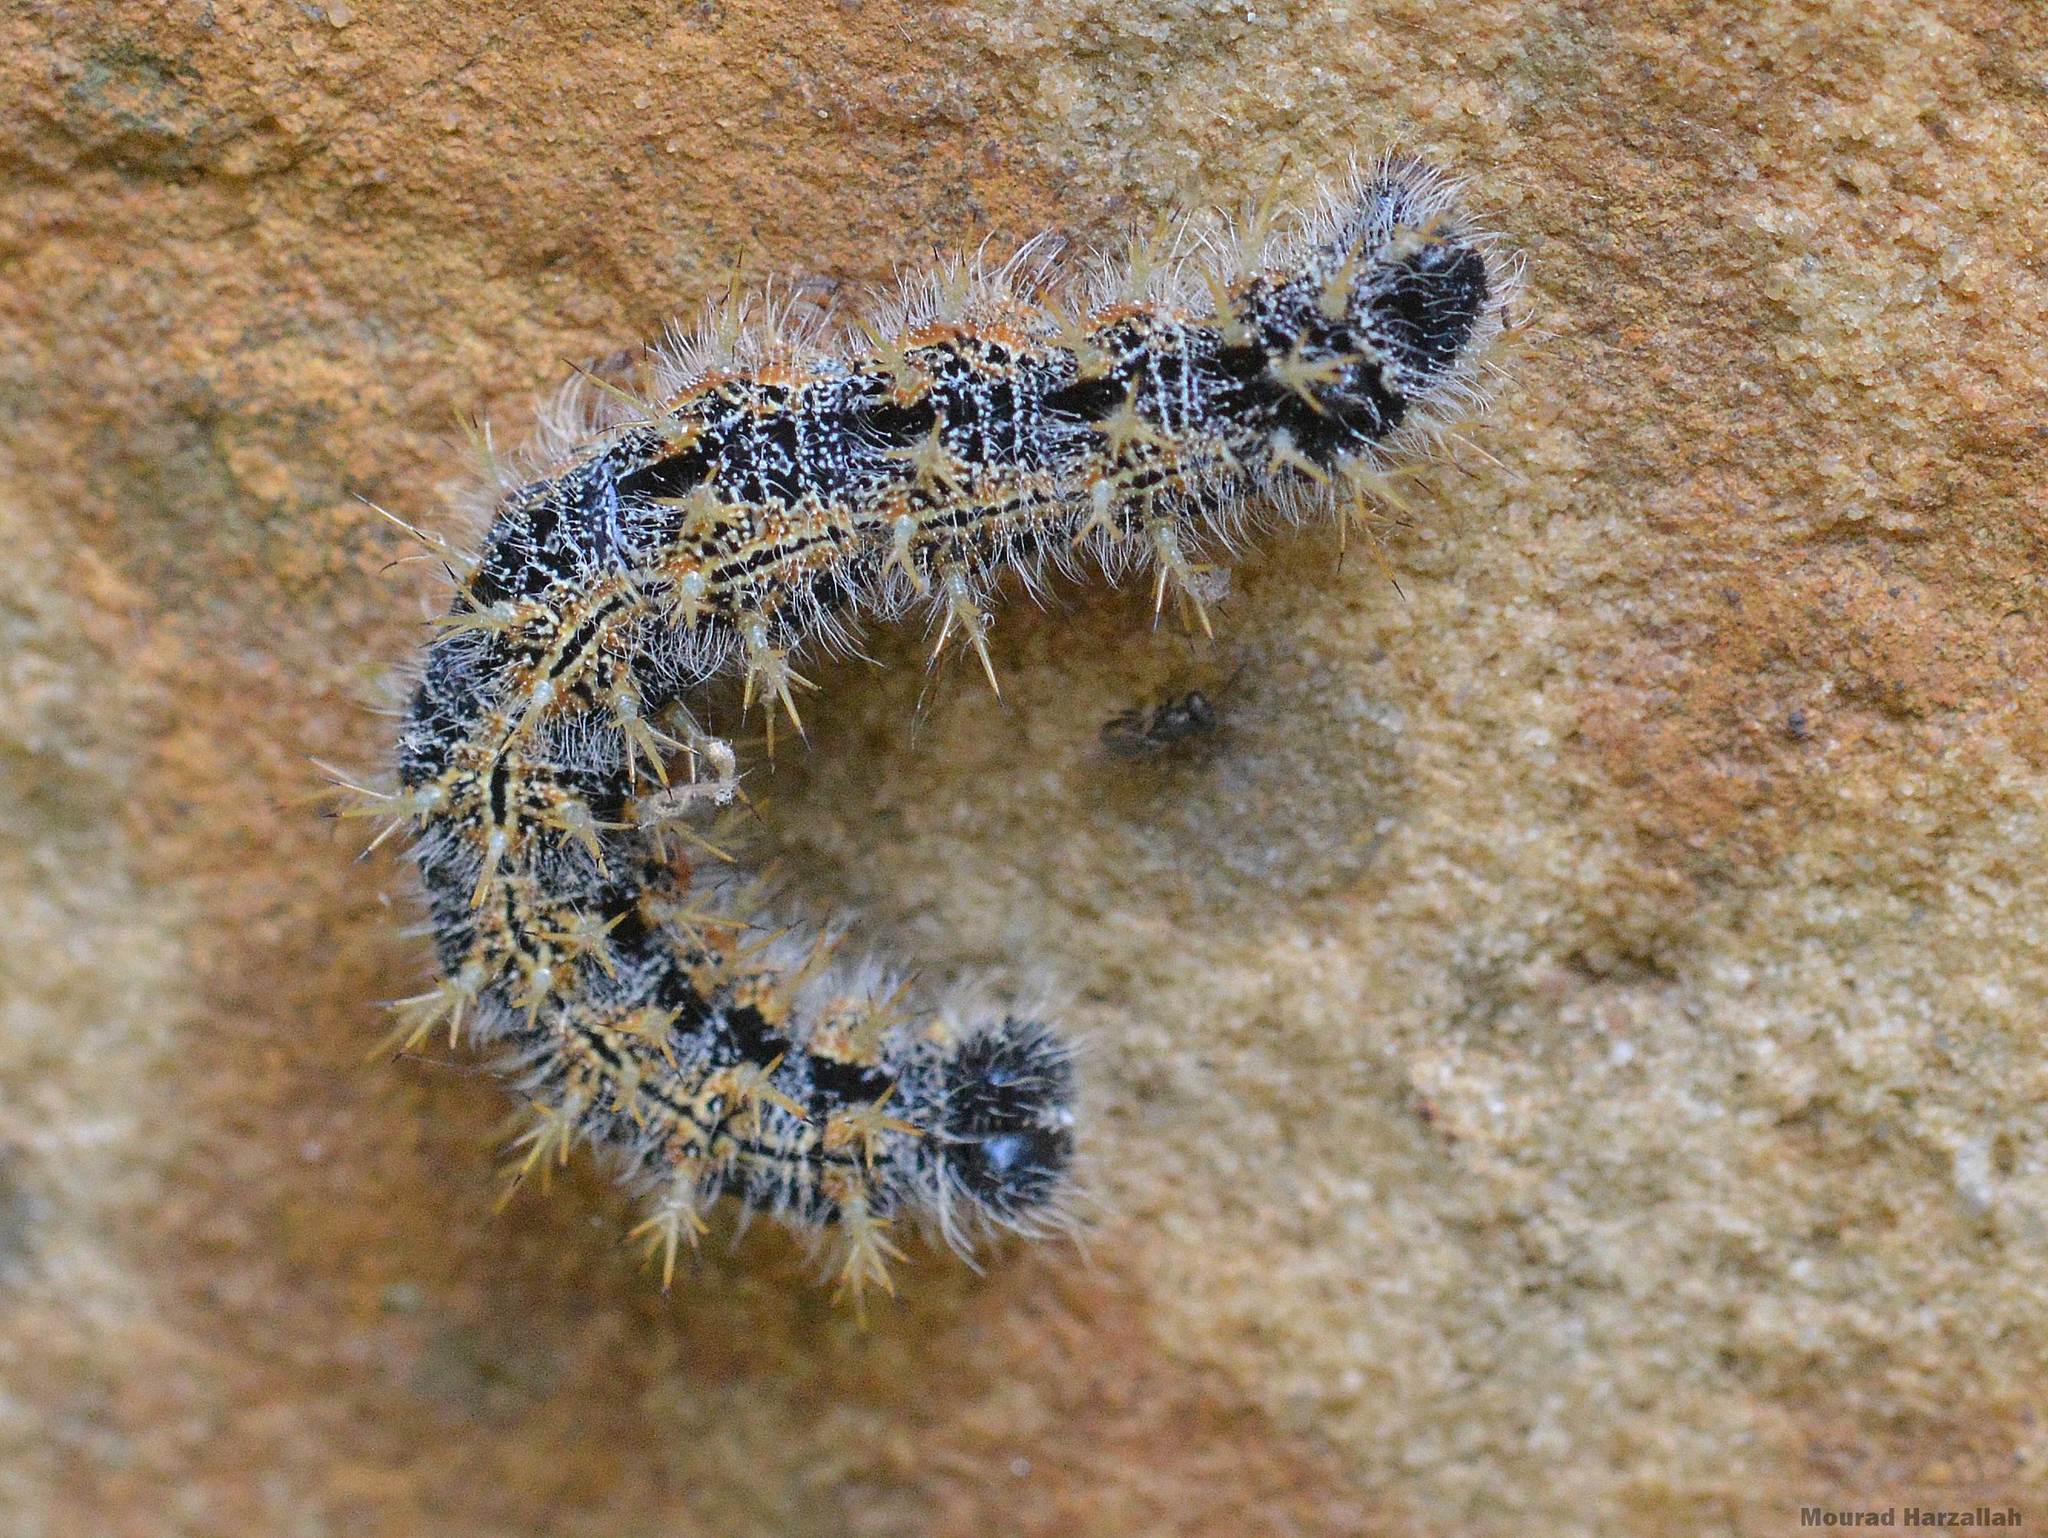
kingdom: Animalia
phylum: Arthropoda
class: Insecta
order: Lepidoptera
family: Nymphalidae
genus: Nymphalis
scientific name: Nymphalis polychloros
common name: Large tortoiseshell
